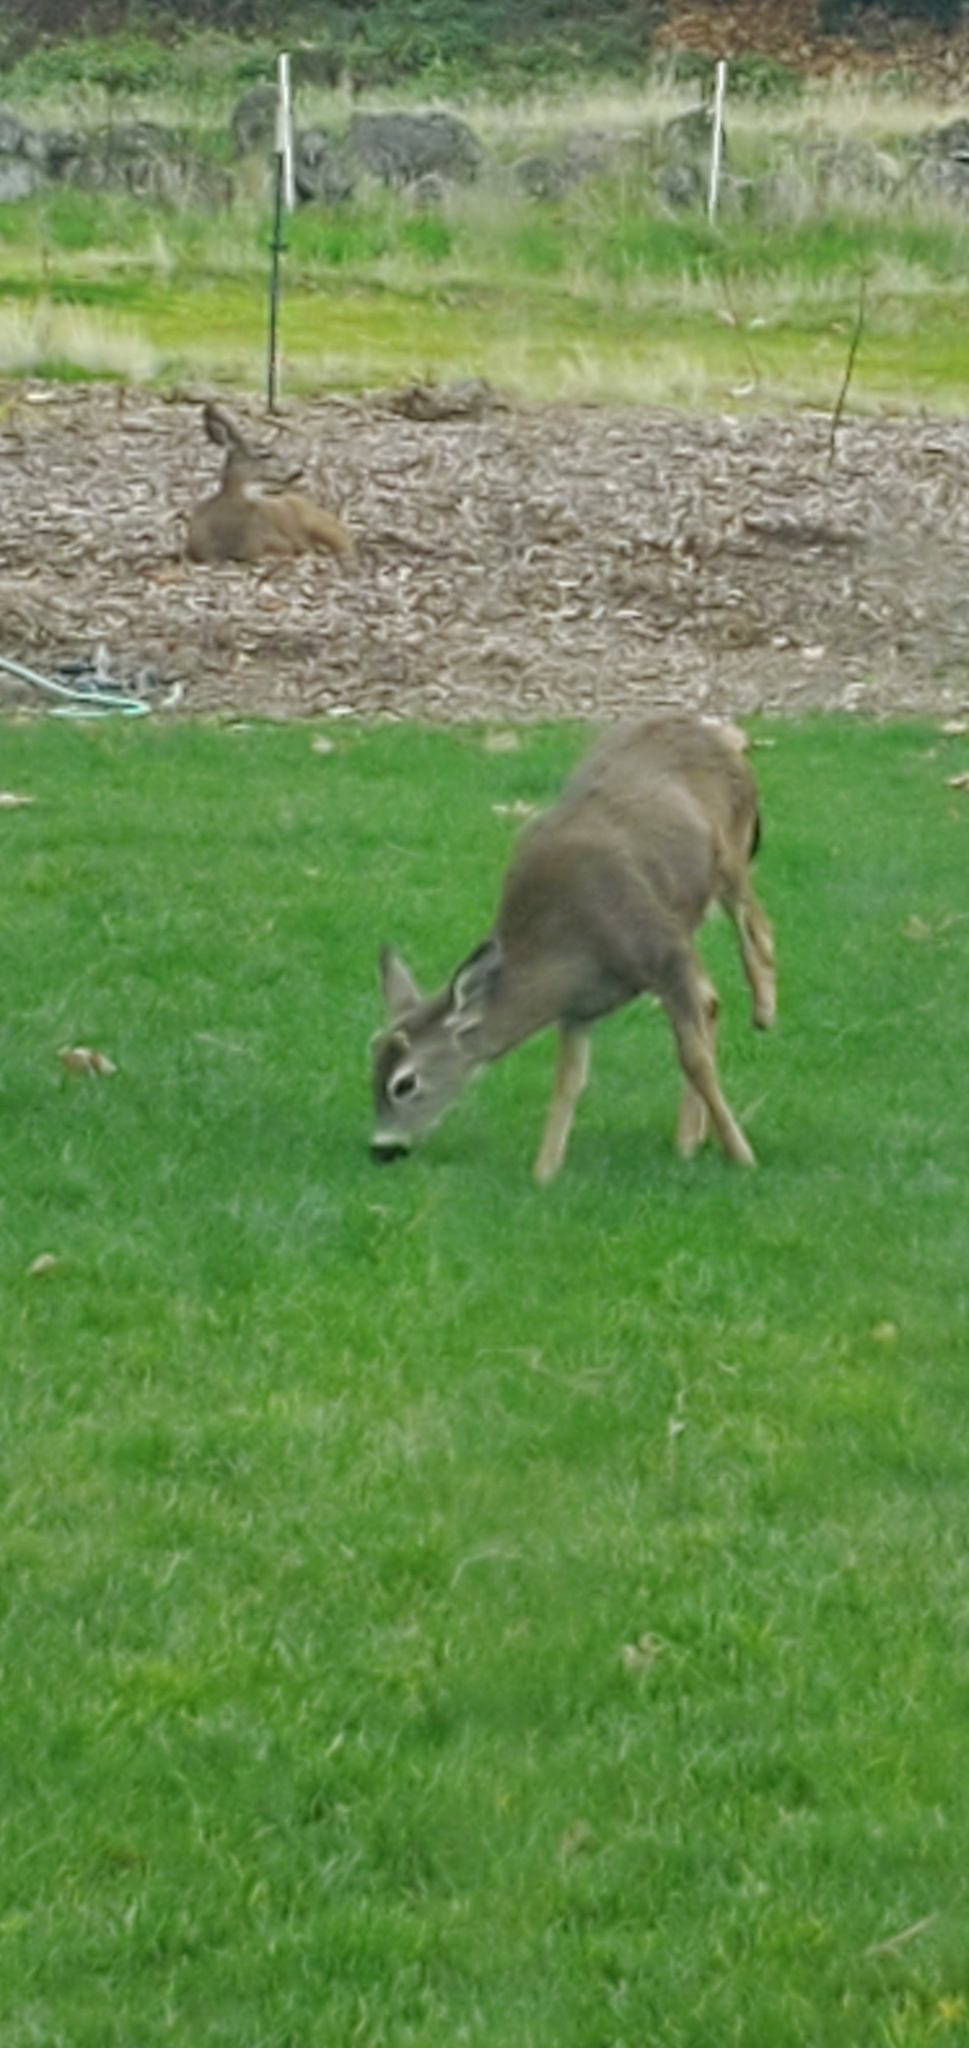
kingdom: Animalia
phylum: Chordata
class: Mammalia
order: Artiodactyla
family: Cervidae
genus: Odocoileus
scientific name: Odocoileus hemionus
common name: Mule deer
